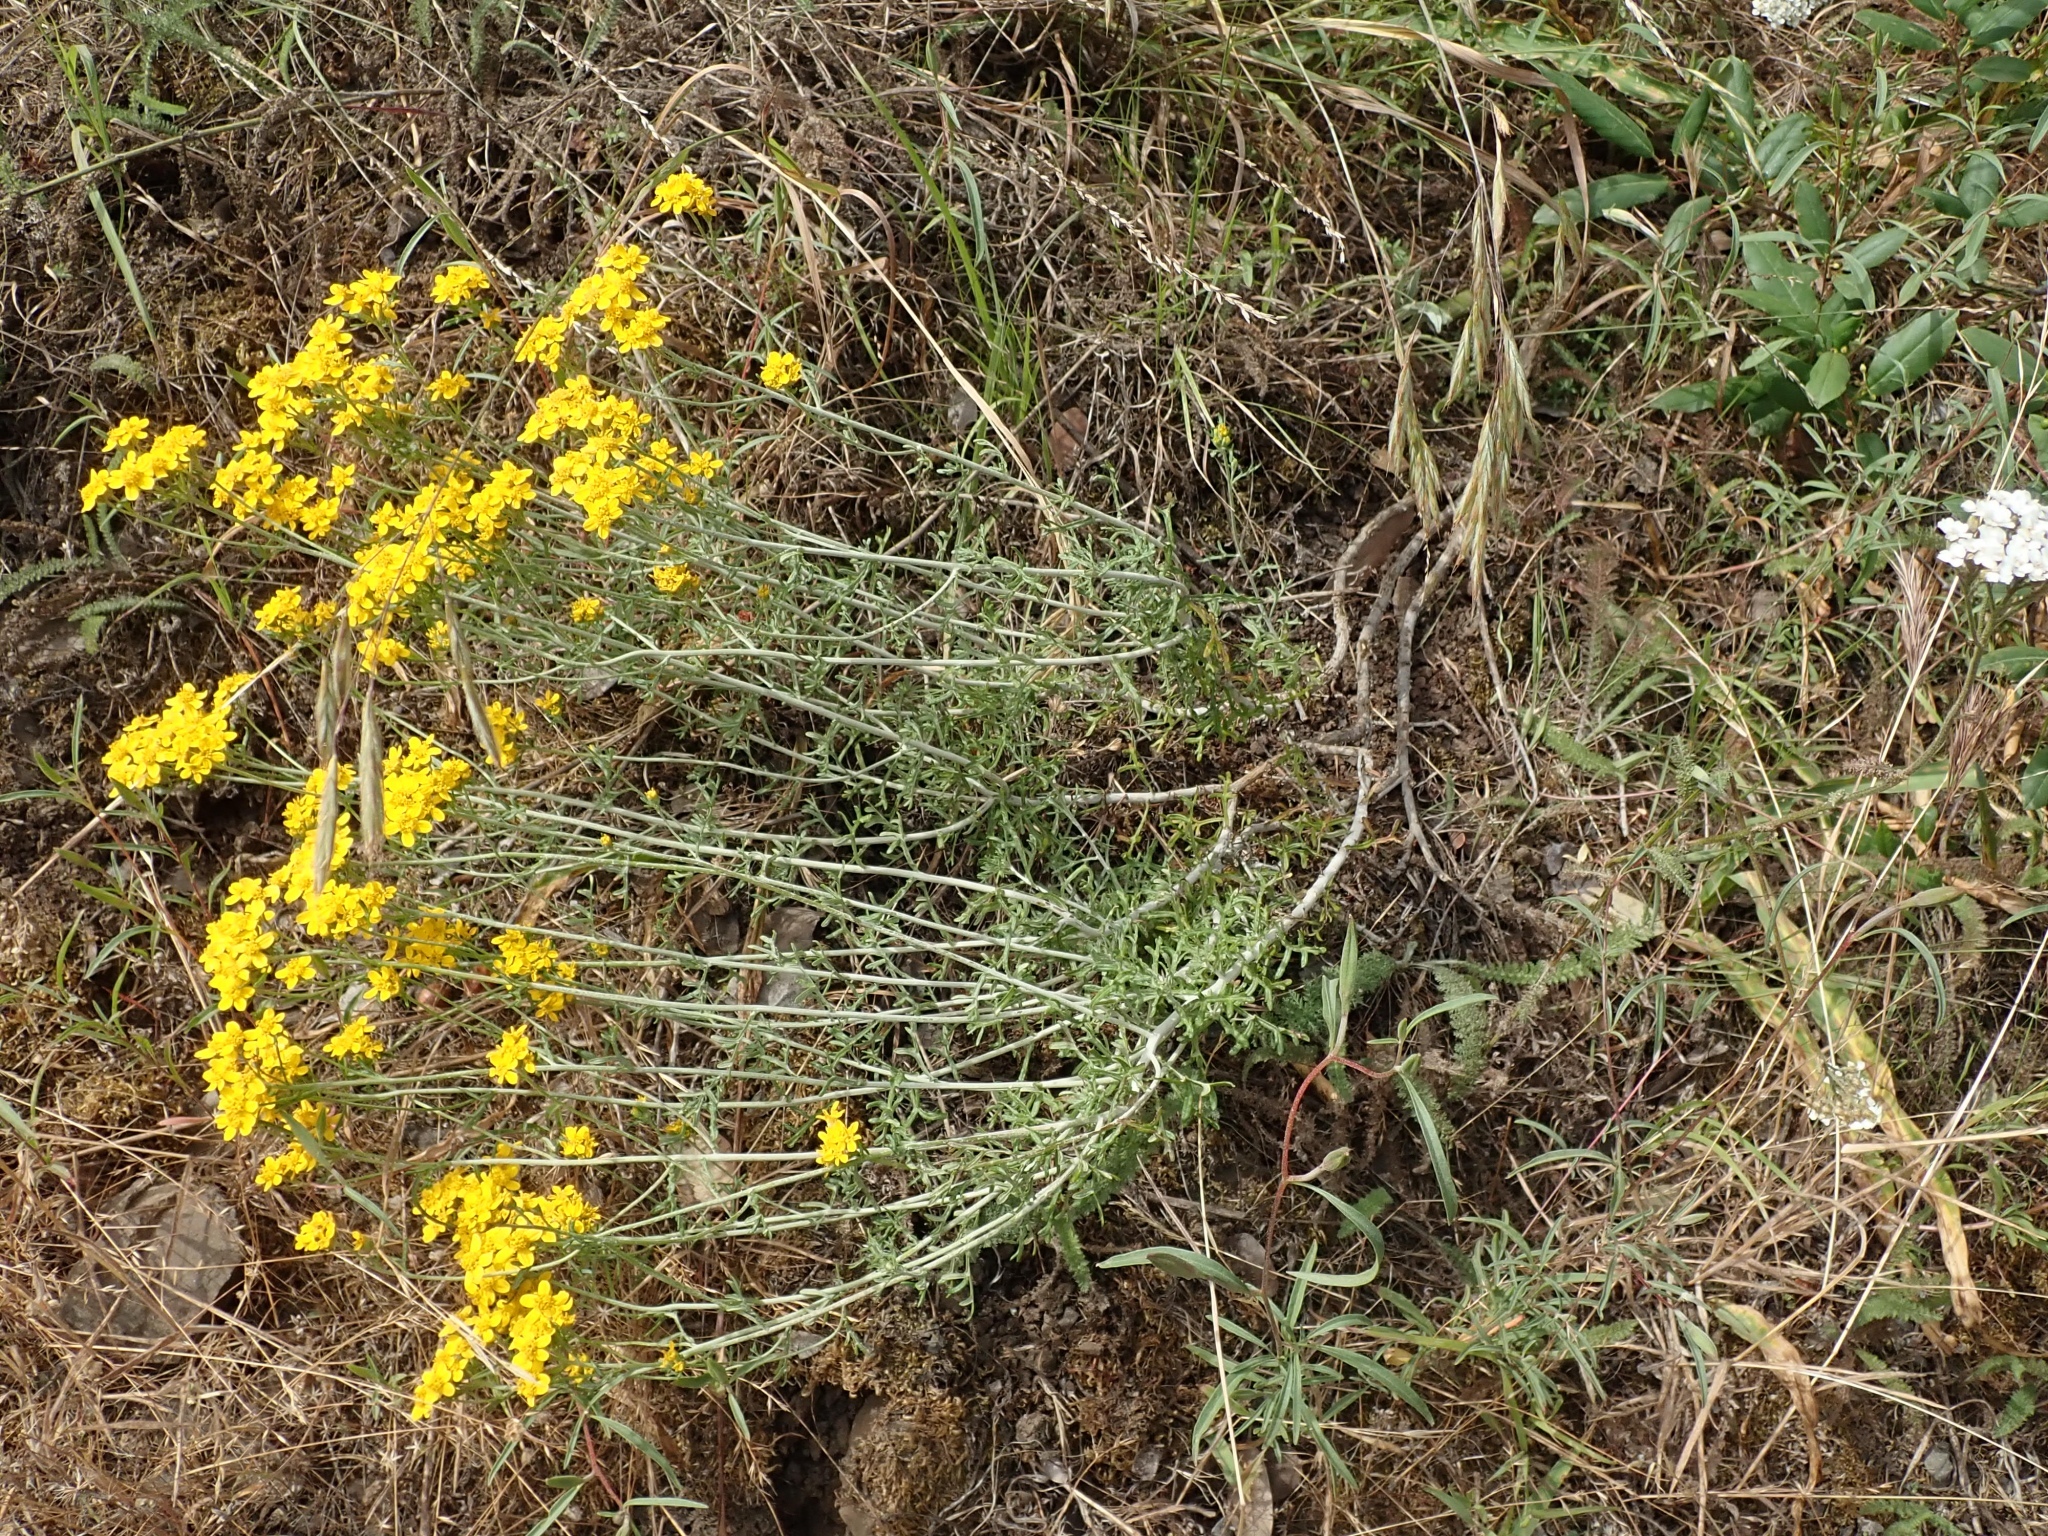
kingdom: Plantae
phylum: Tracheophyta
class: Magnoliopsida
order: Asterales
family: Asteraceae
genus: Eriophyllum
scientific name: Eriophyllum confertiflorum
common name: Golden-yarrow
